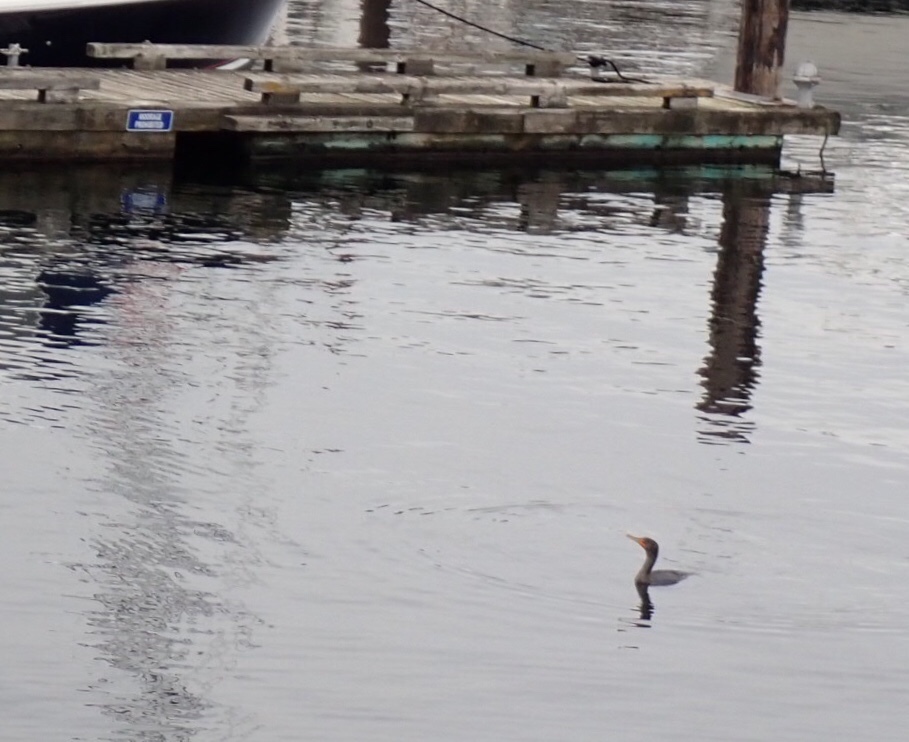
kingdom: Animalia
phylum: Chordata
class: Aves
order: Suliformes
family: Phalacrocoracidae
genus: Phalacrocorax
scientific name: Phalacrocorax auritus
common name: Double-crested cormorant
